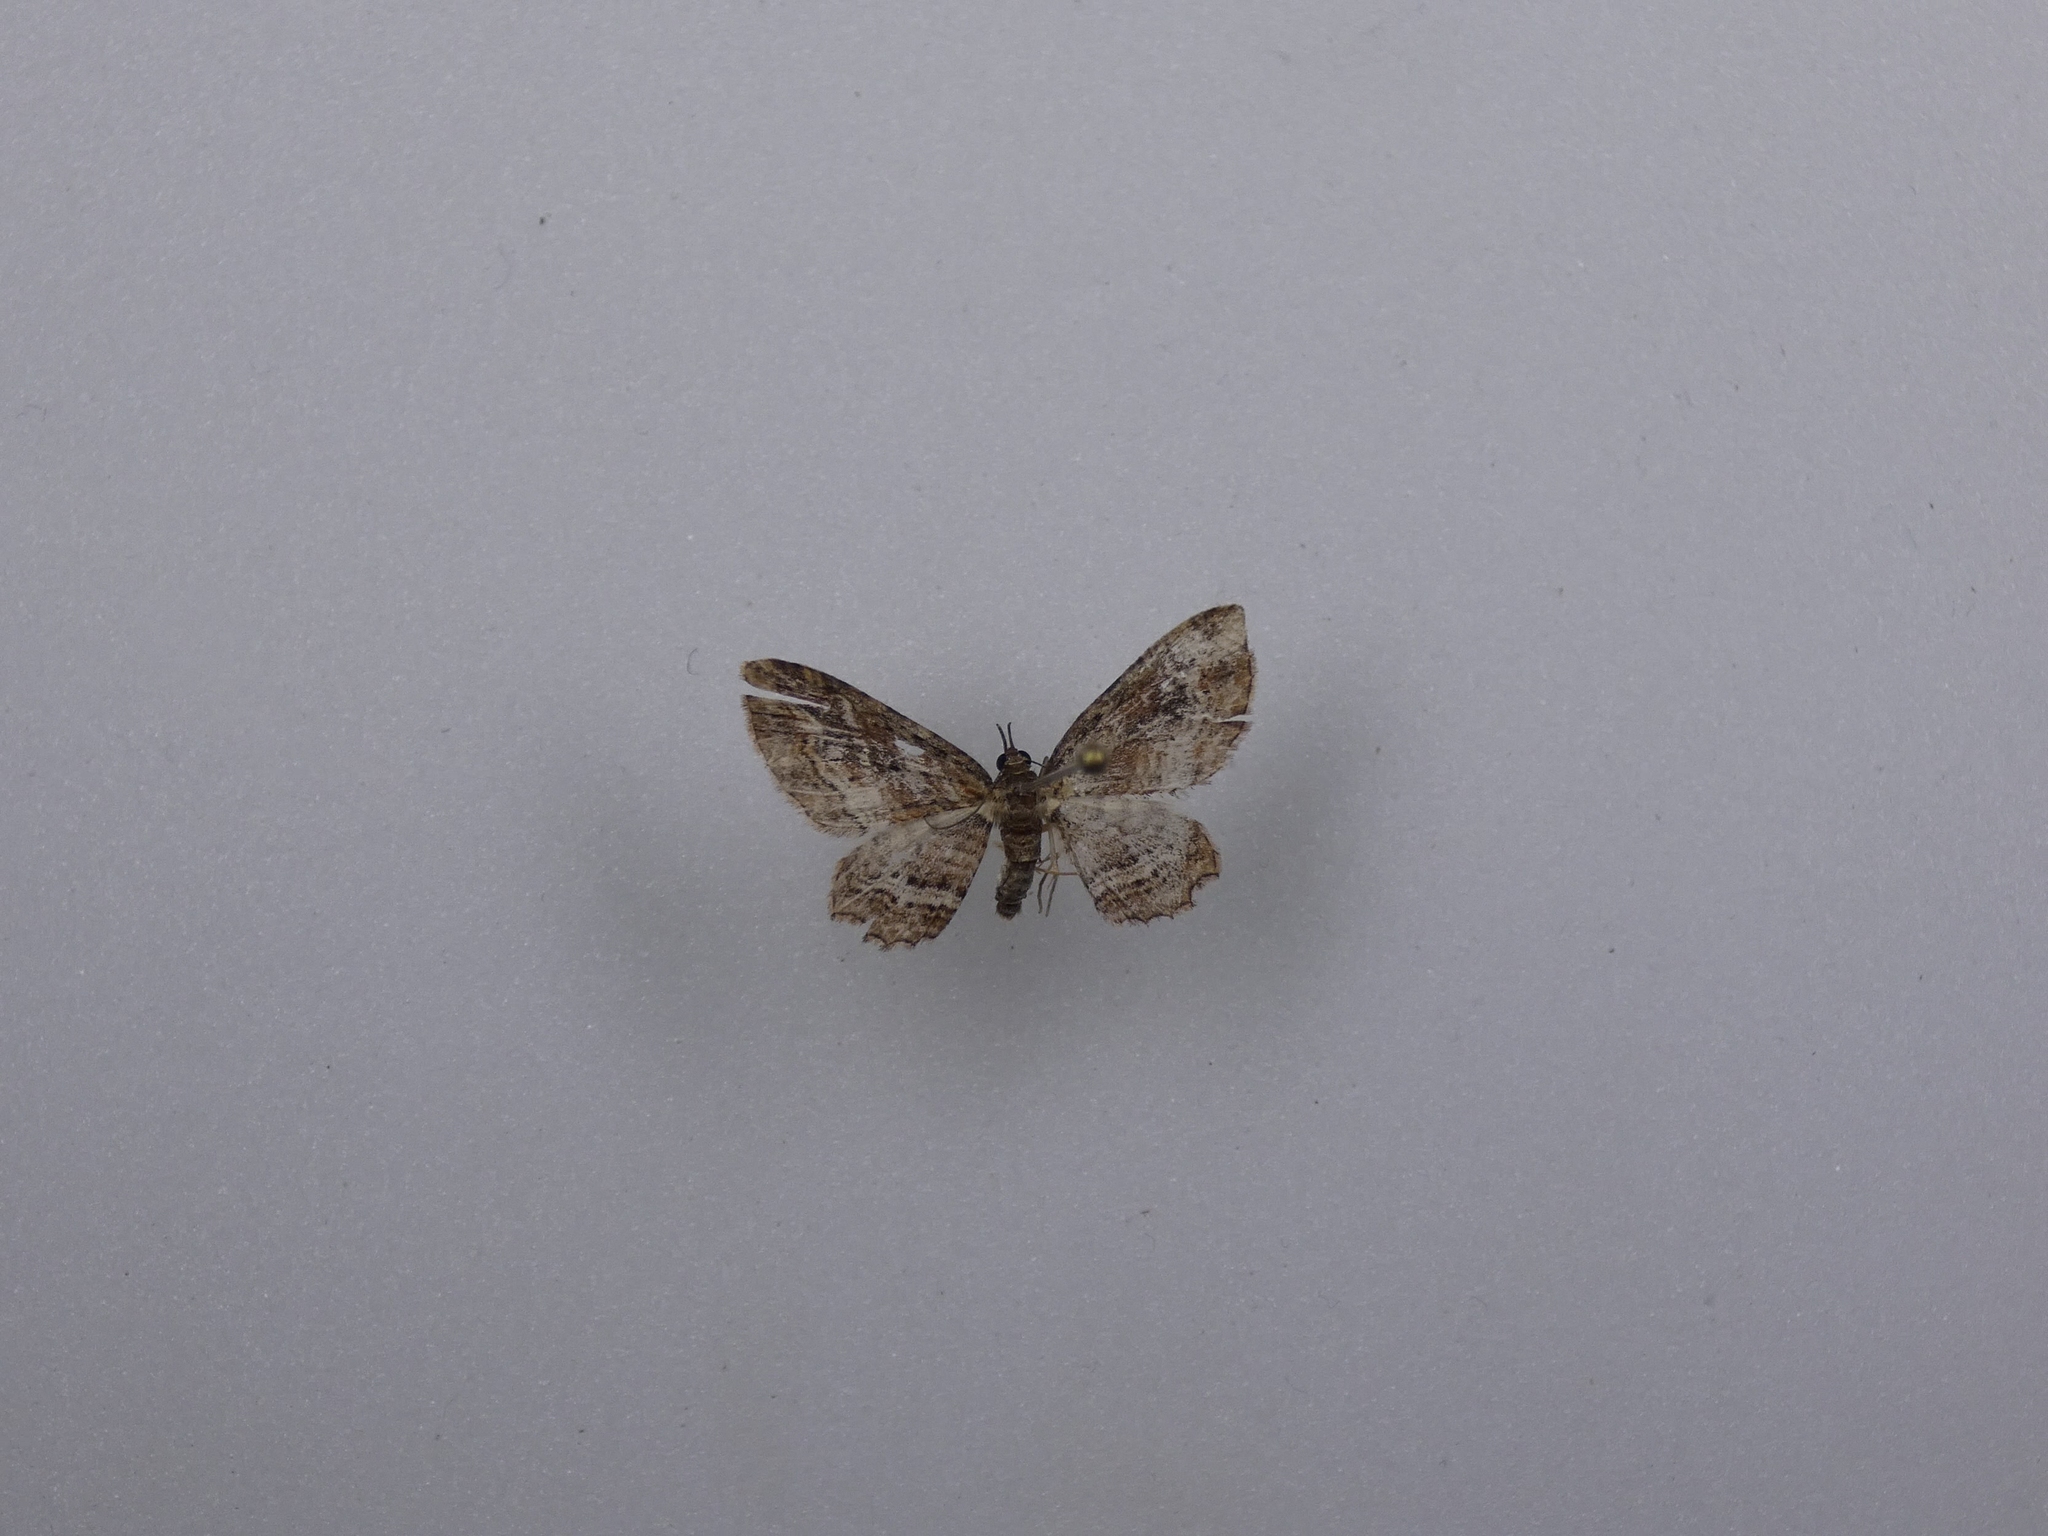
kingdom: Animalia
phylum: Arthropoda
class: Insecta
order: Lepidoptera
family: Geometridae
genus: Chloroclystis
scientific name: Chloroclystis filata
